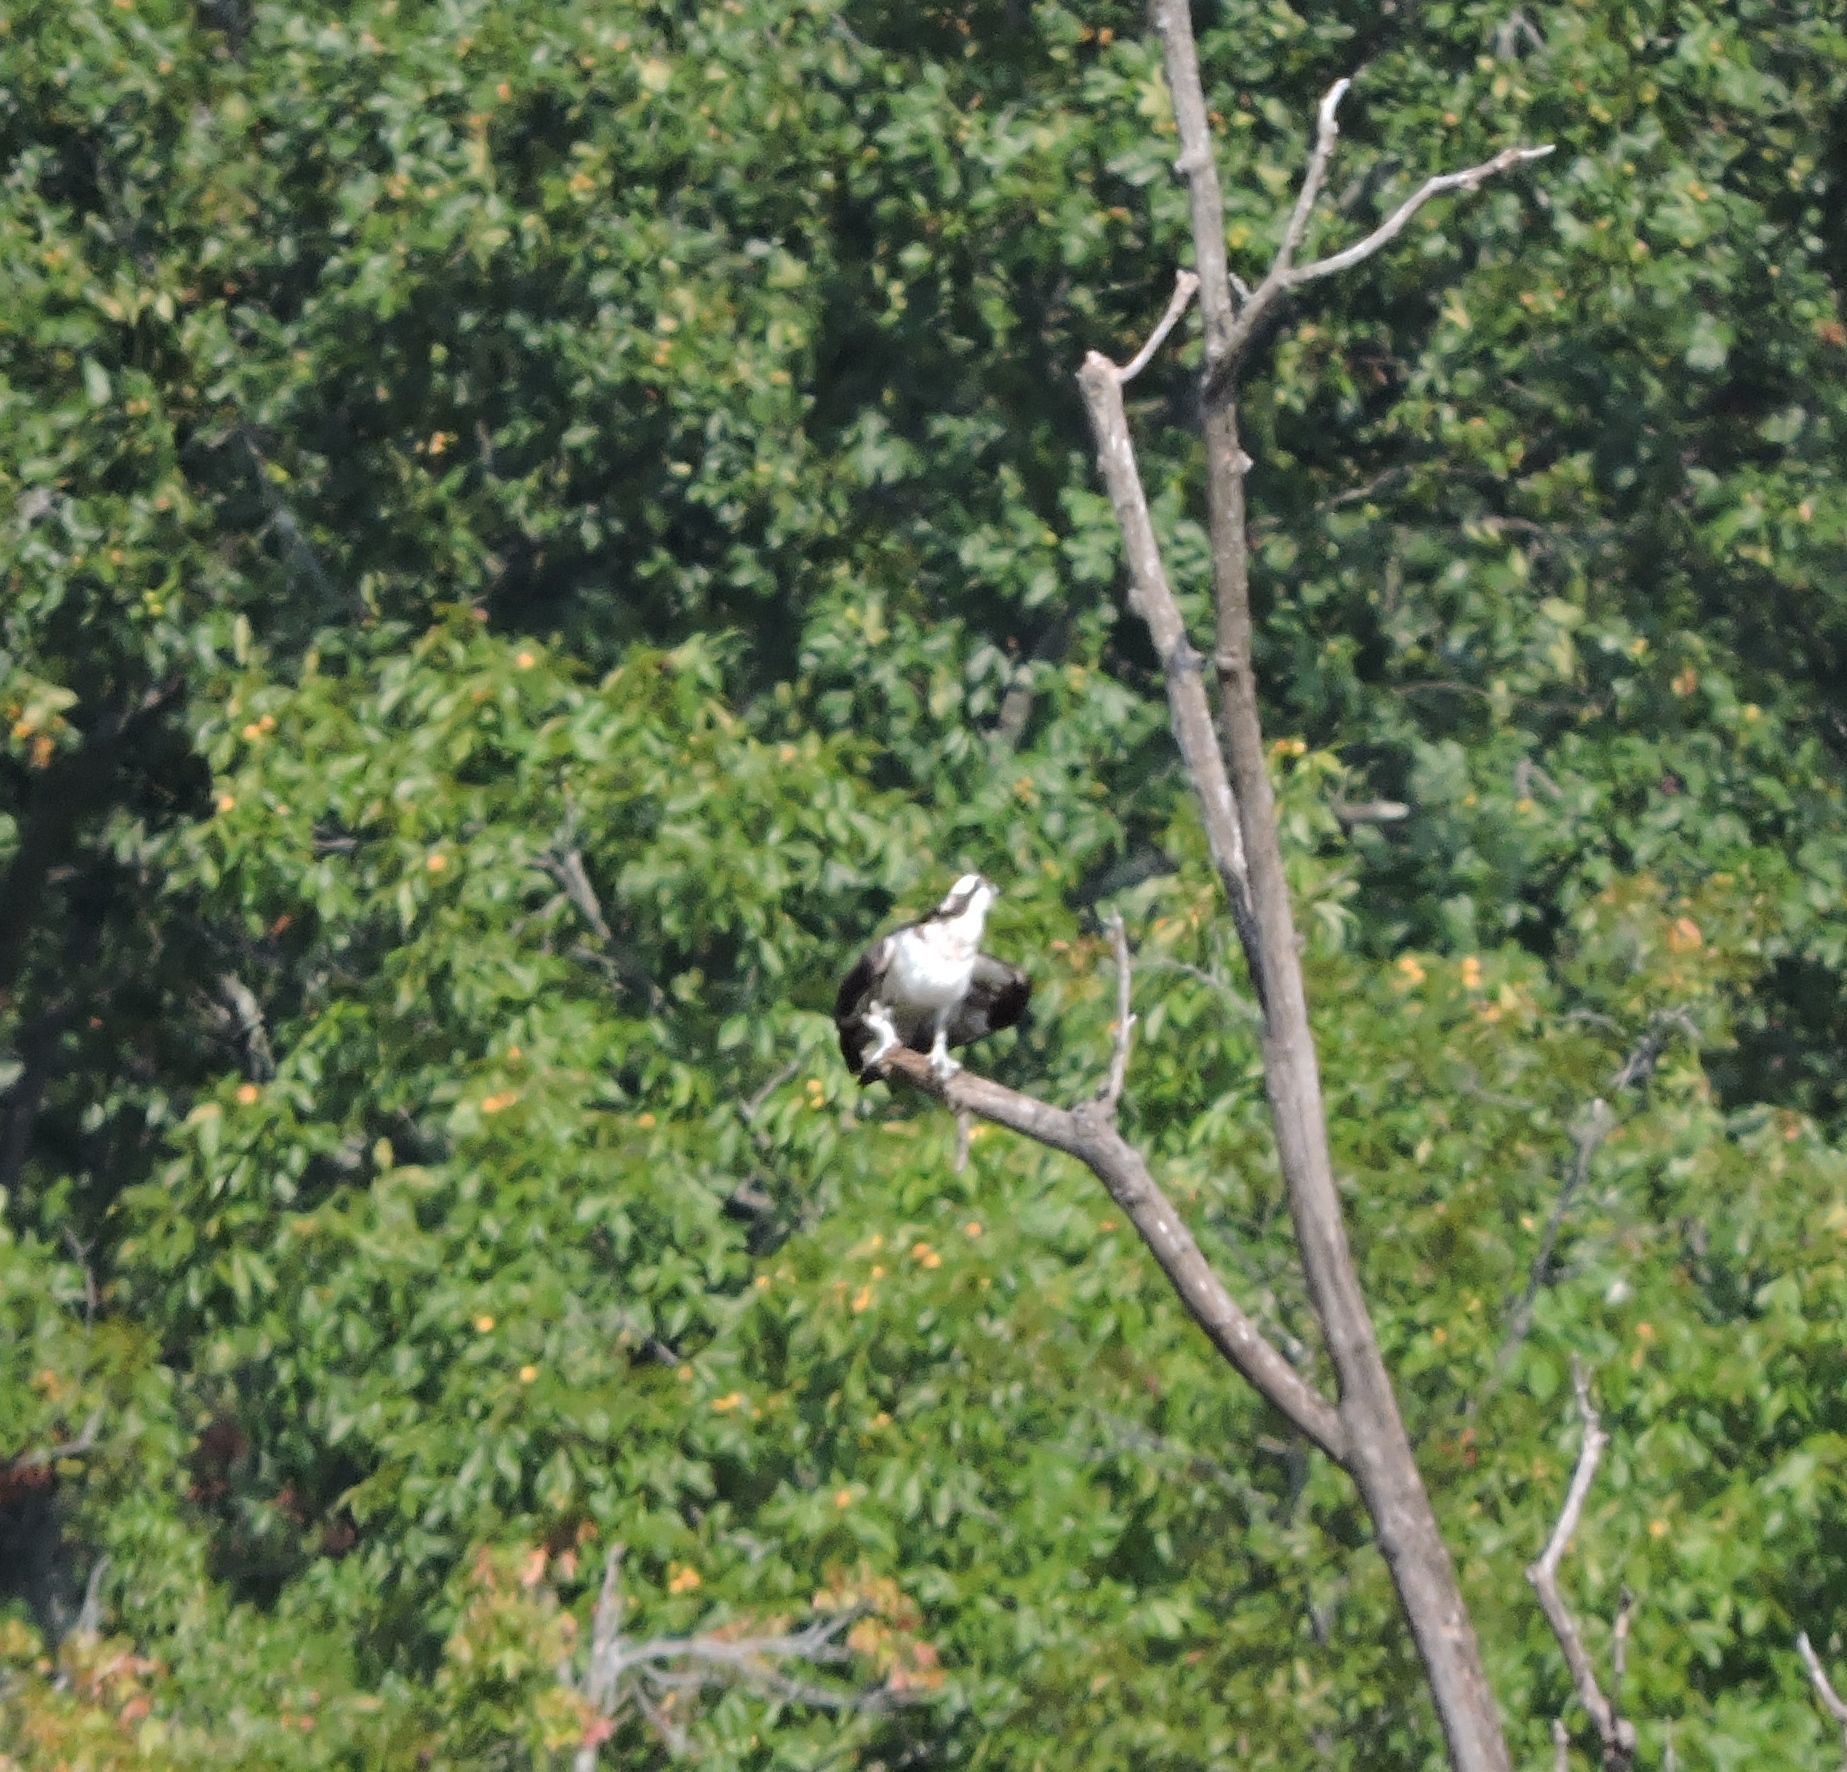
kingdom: Animalia
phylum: Chordata
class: Aves
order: Accipitriformes
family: Pandionidae
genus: Pandion
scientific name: Pandion haliaetus
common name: Osprey
